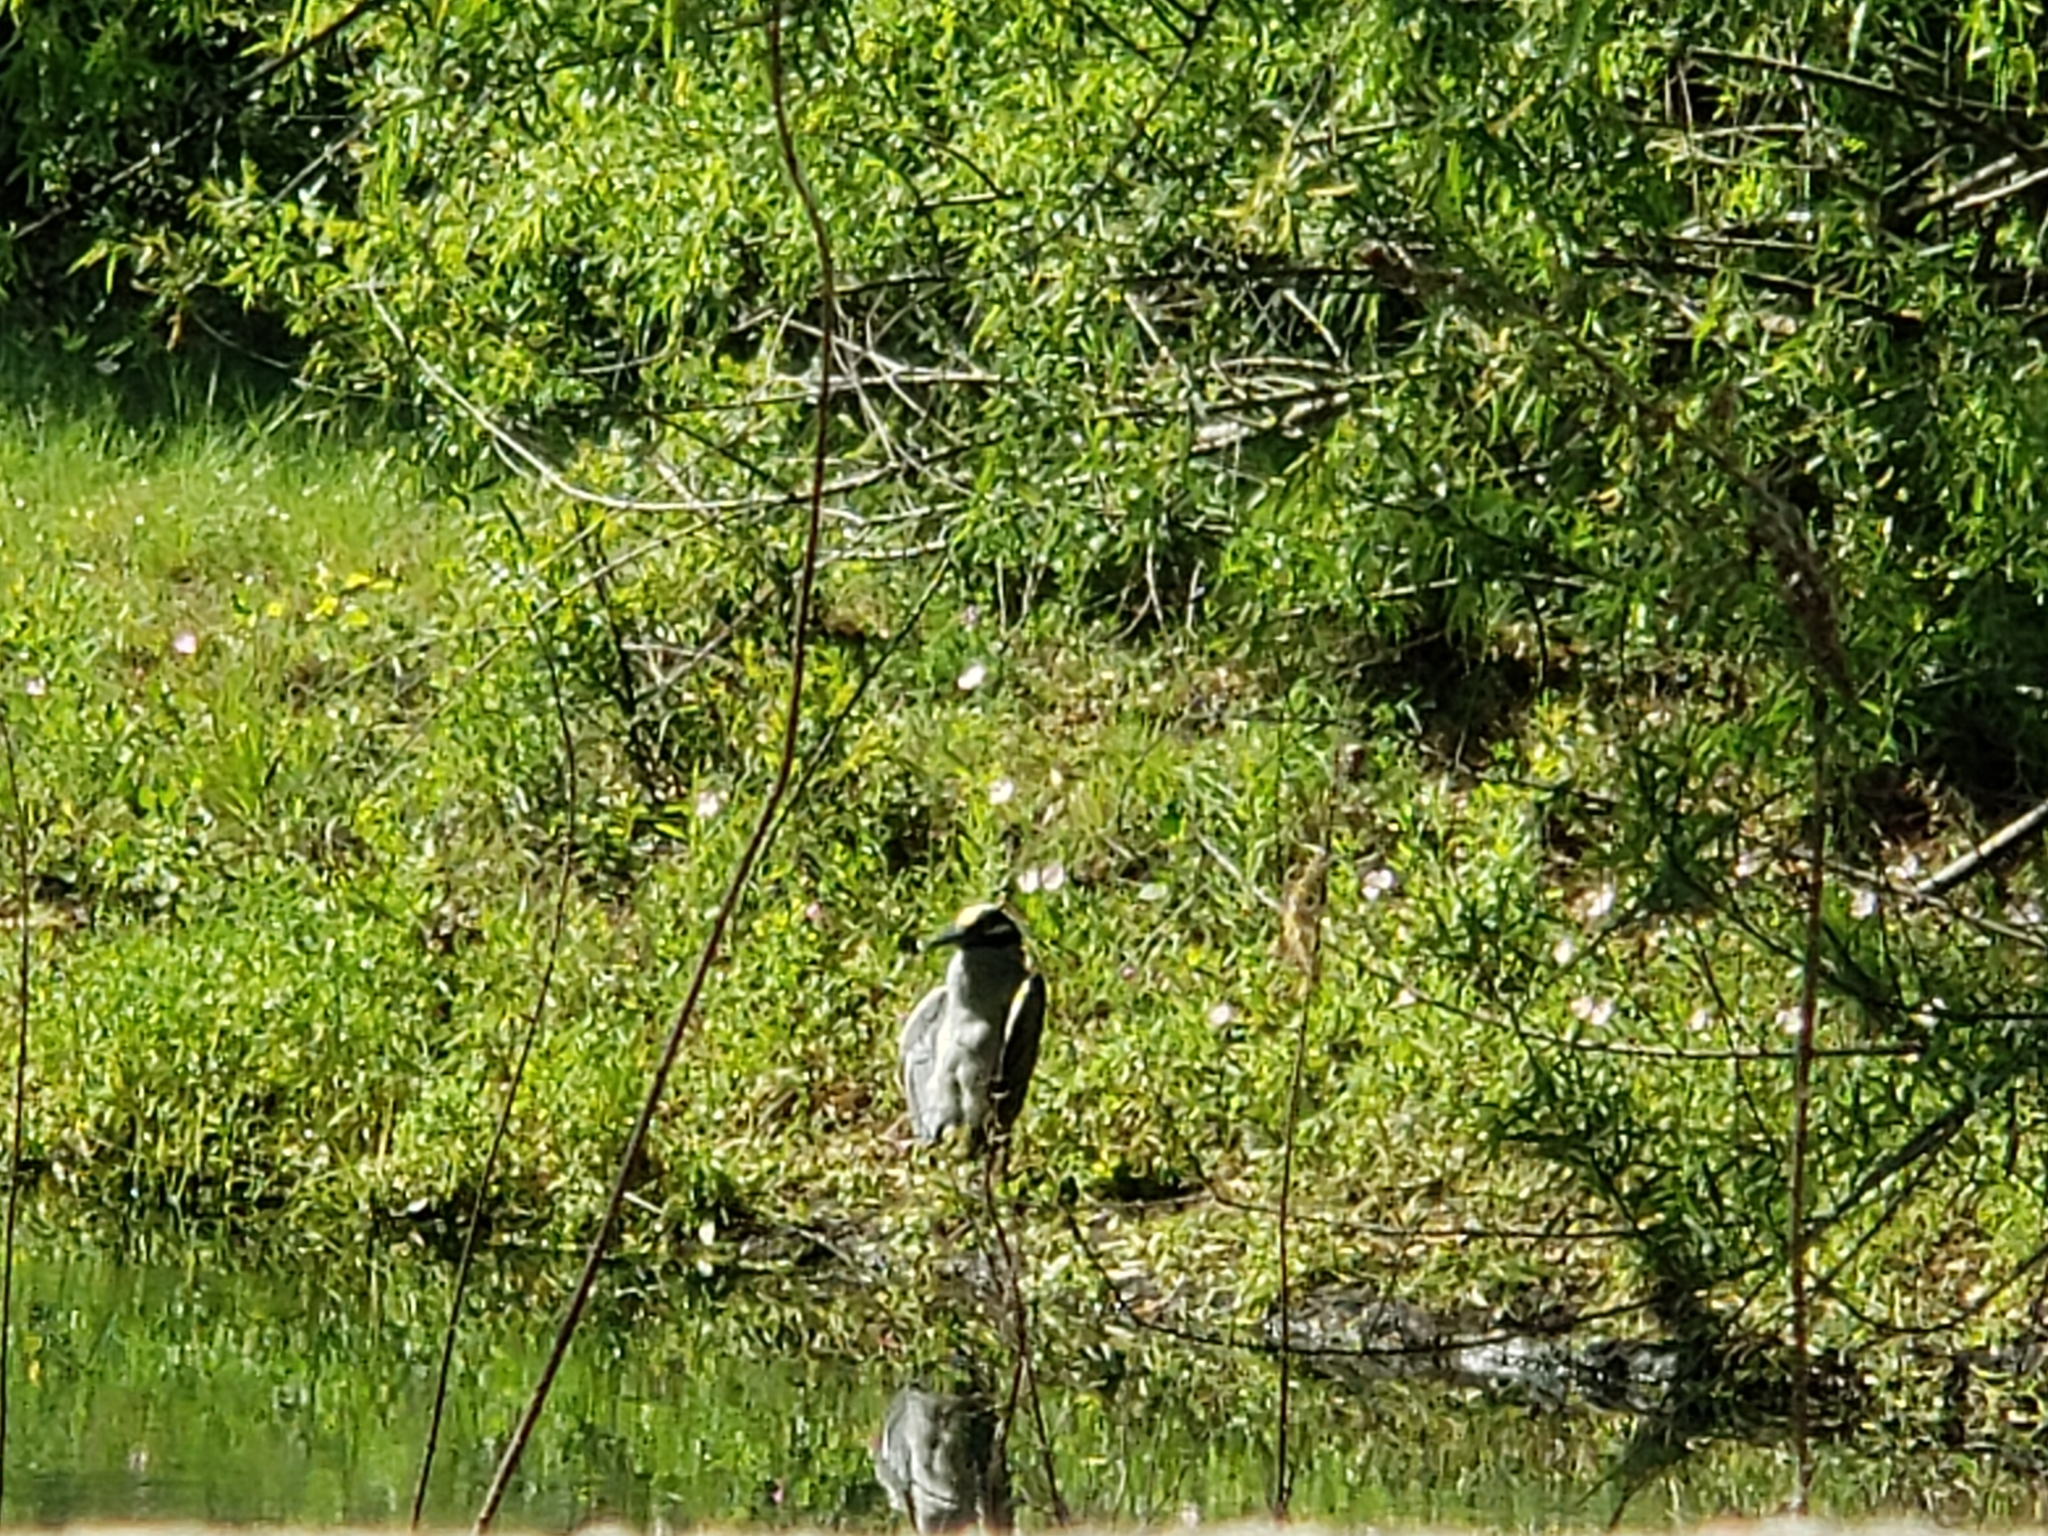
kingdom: Animalia
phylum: Chordata
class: Aves
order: Pelecaniformes
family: Ardeidae
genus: Nyctanassa
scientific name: Nyctanassa violacea
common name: Yellow-crowned night heron
